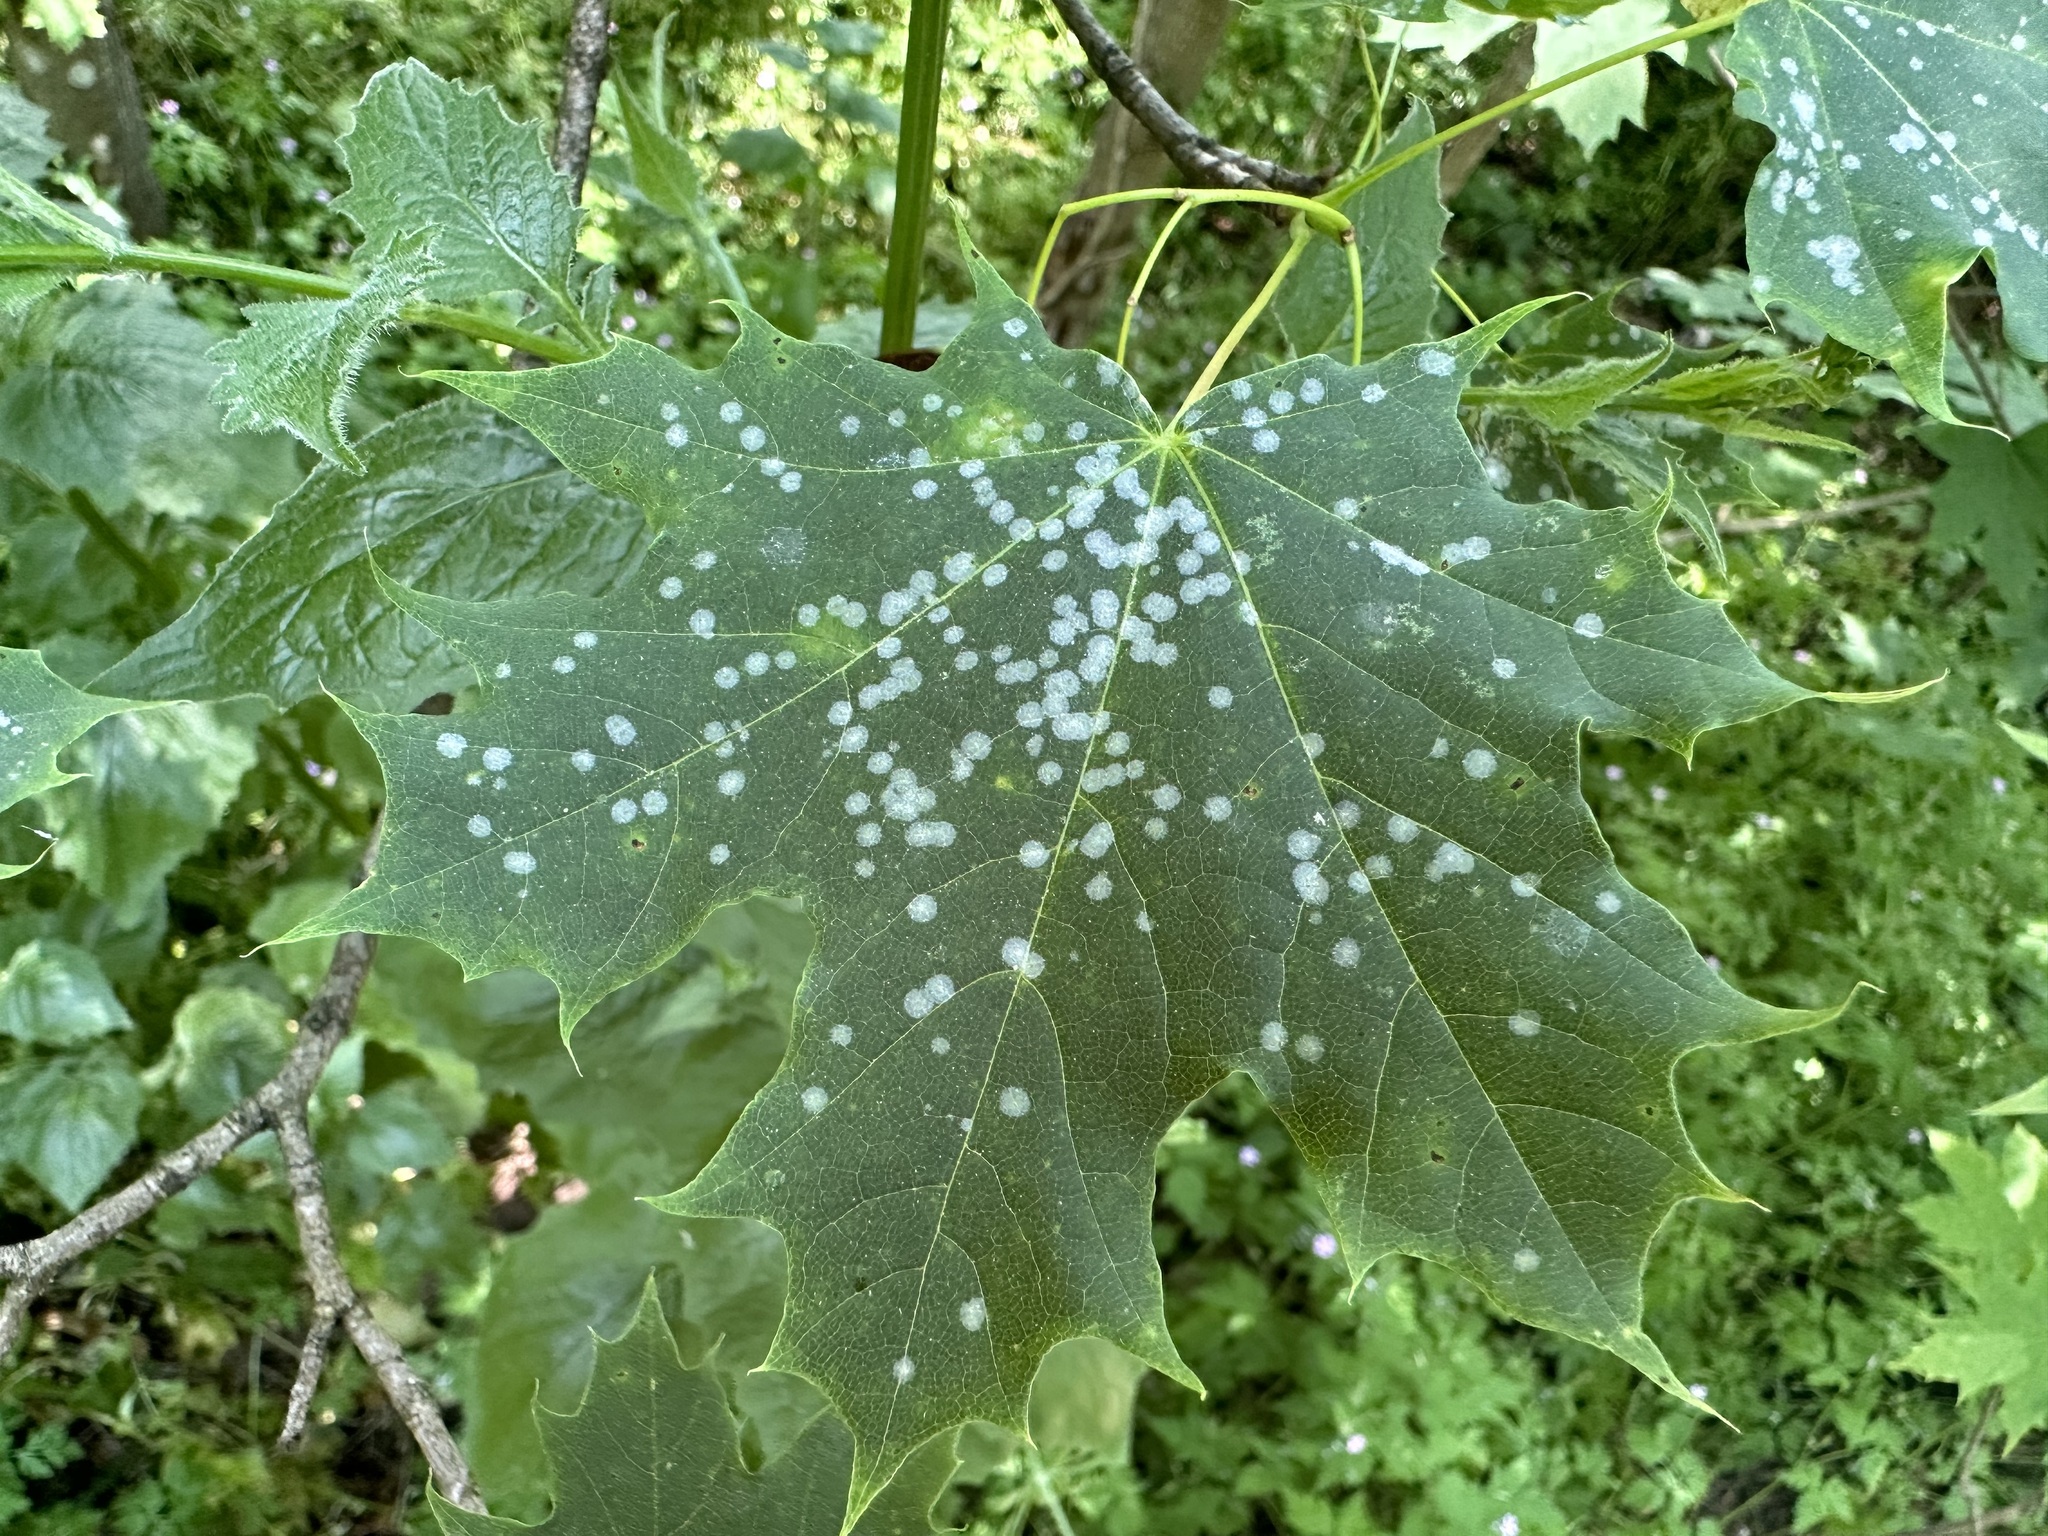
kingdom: Fungi
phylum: Ascomycota
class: Leotiomycetes
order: Helotiales
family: Erysiphaceae
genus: Sawadaea
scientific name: Sawadaea tulasnei
